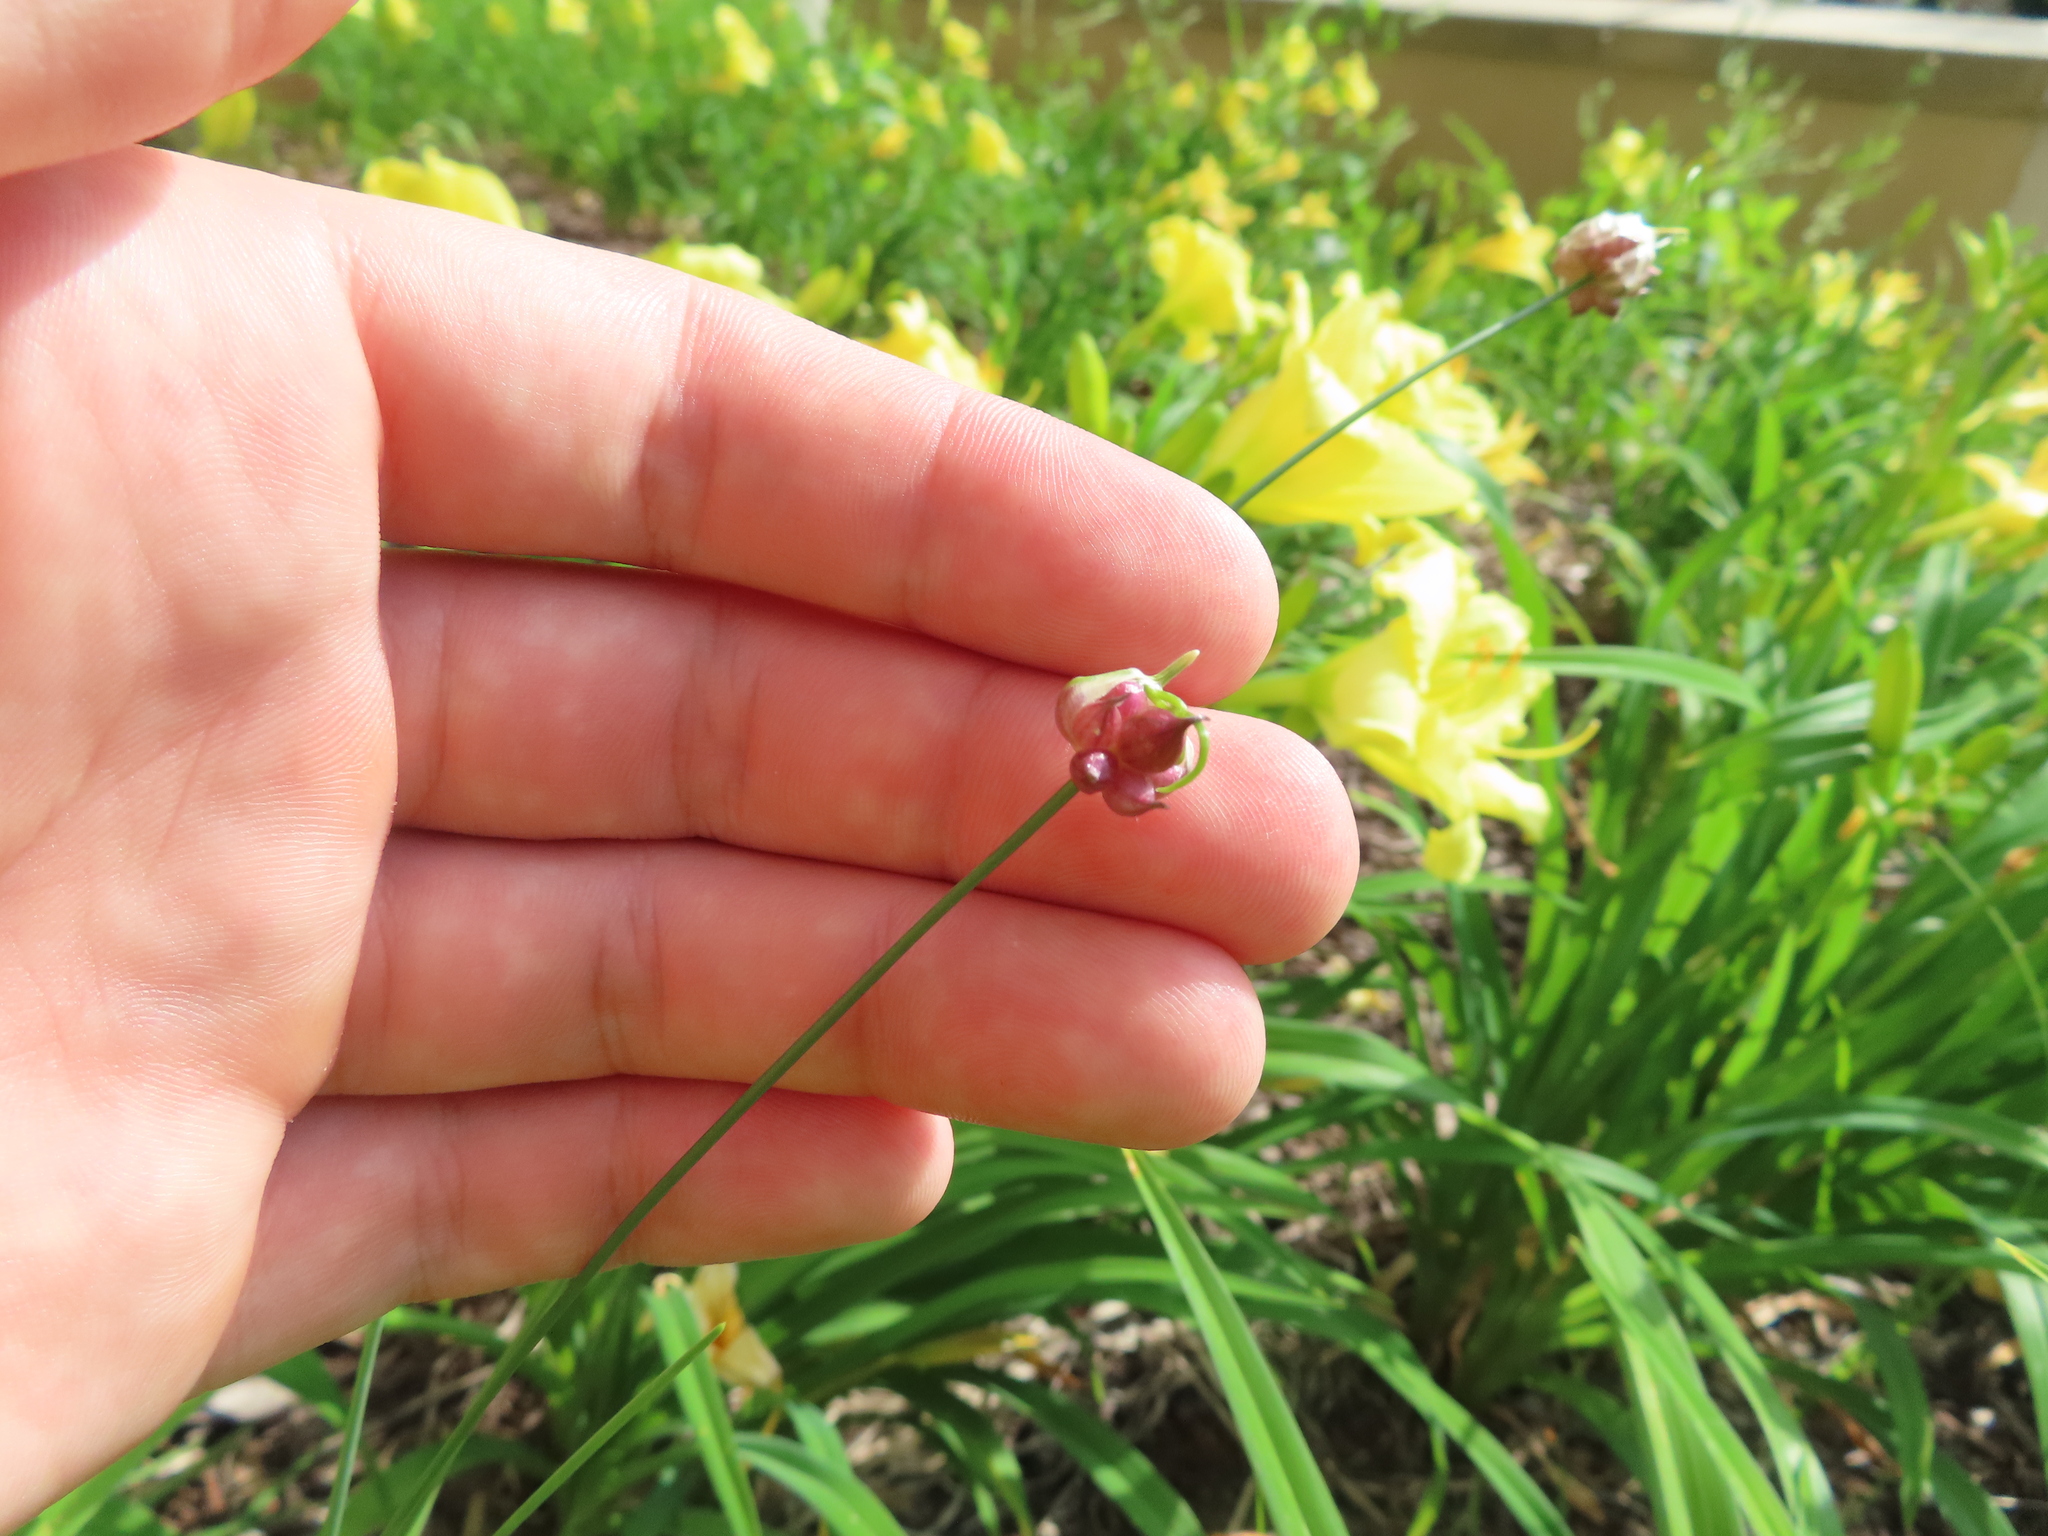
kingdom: Plantae
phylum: Tracheophyta
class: Liliopsida
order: Asparagales
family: Amaryllidaceae
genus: Allium
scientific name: Allium vineale
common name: Crow garlic
